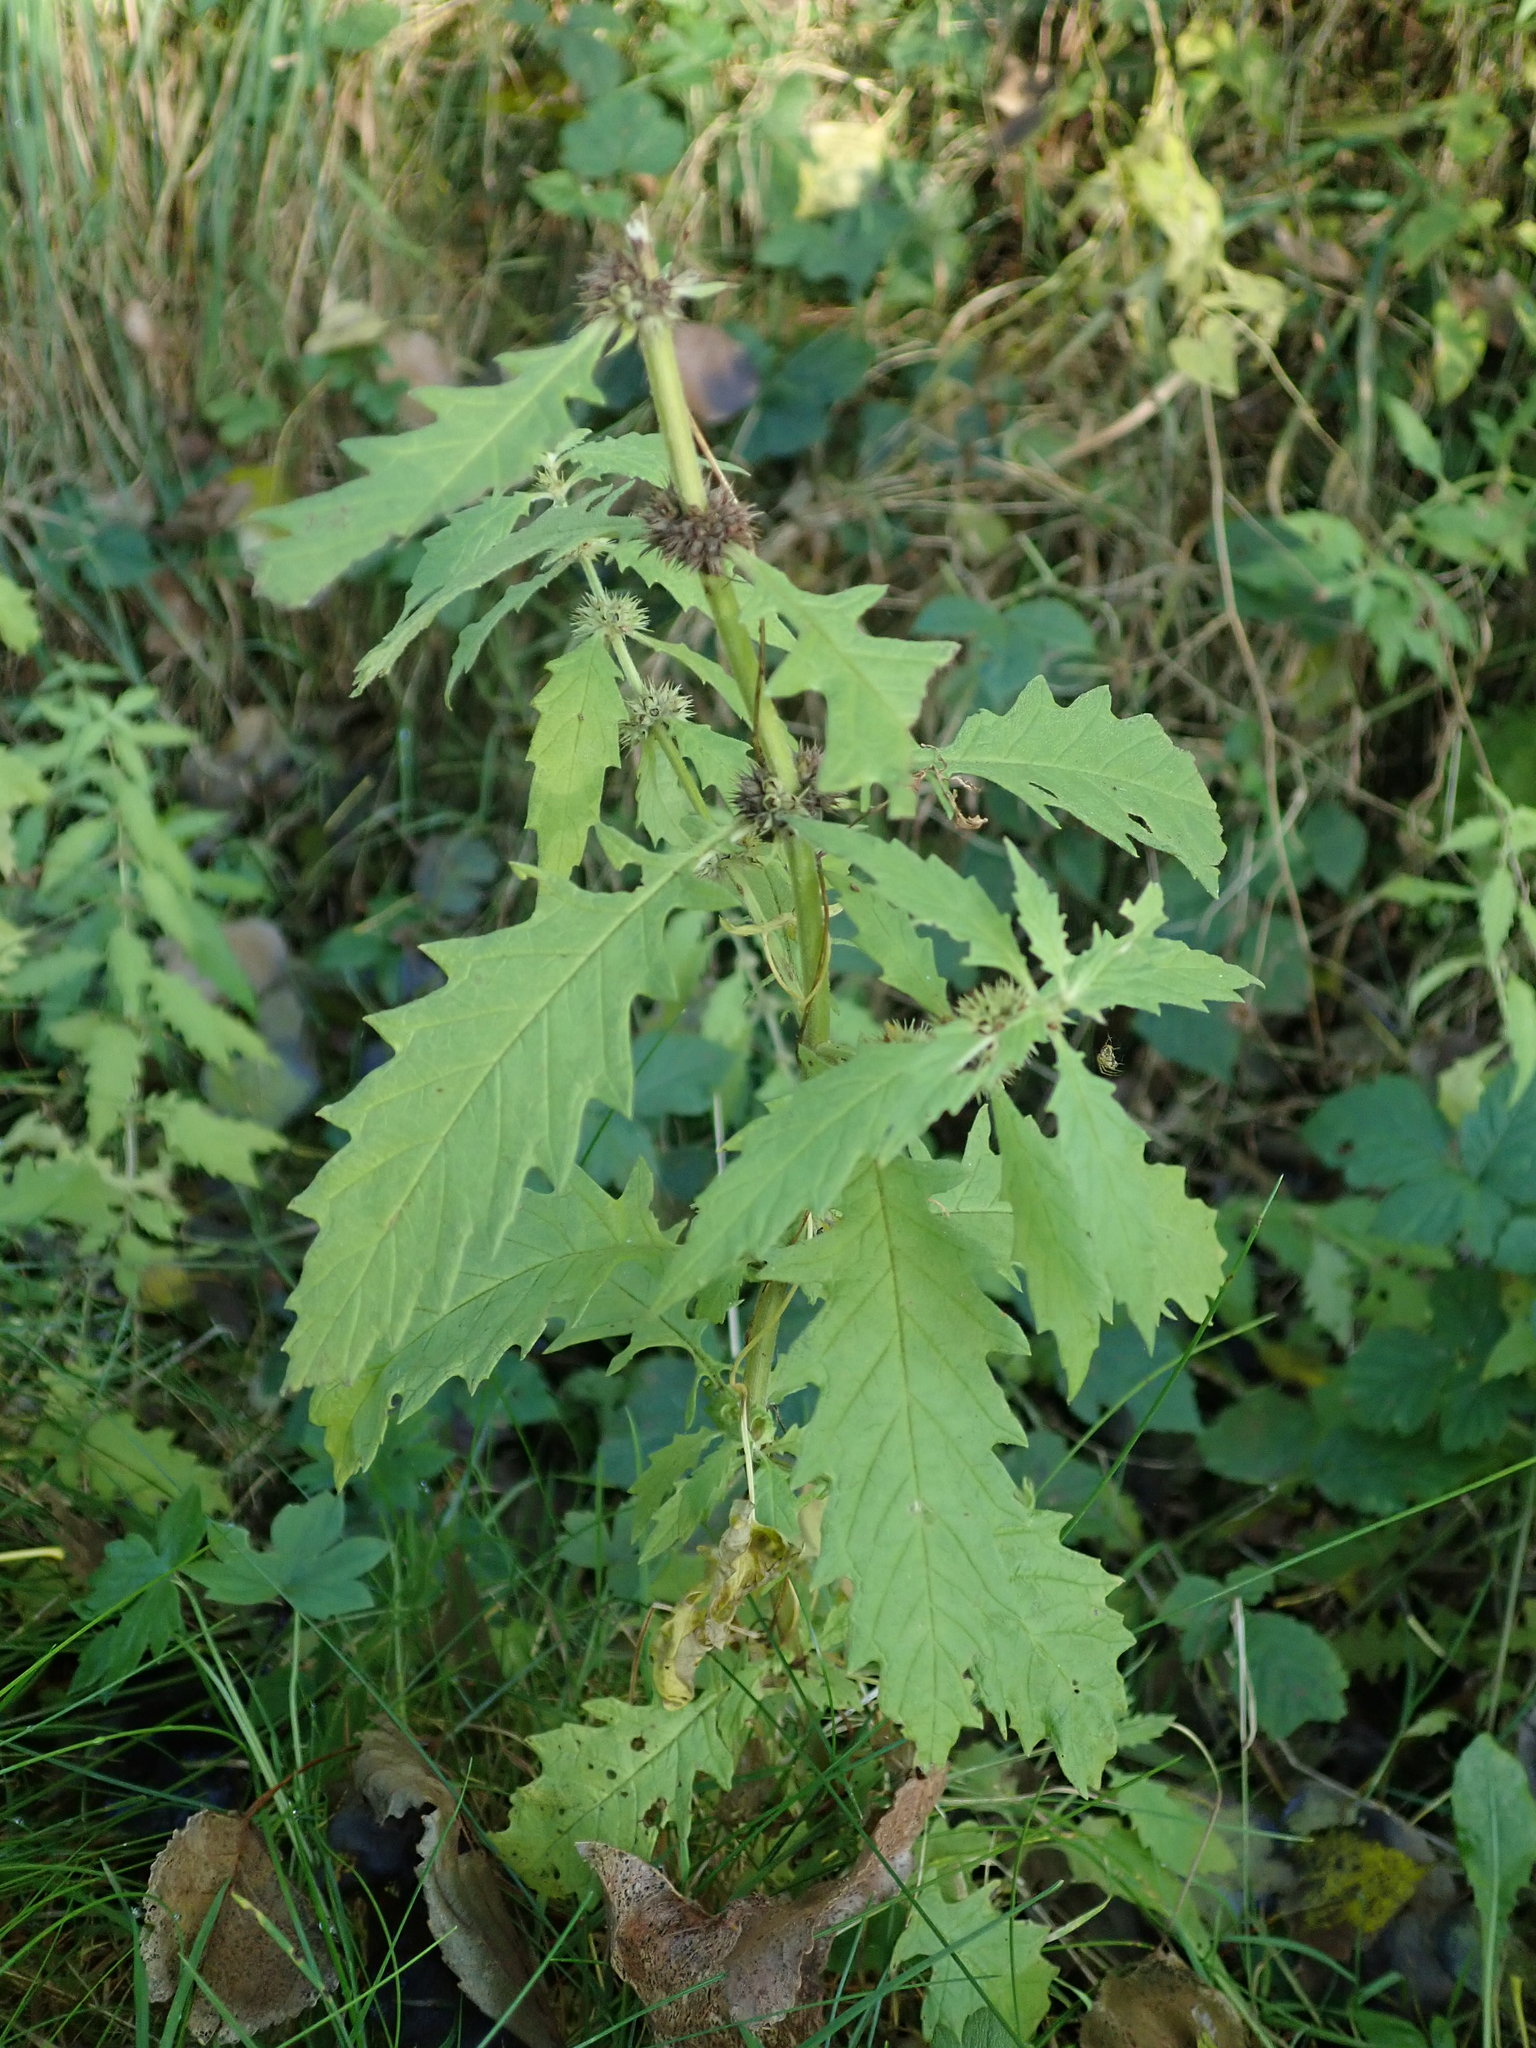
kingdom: Plantae
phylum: Tracheophyta
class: Magnoliopsida
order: Lamiales
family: Lamiaceae
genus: Lycopus
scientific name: Lycopus europaeus
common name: European bugleweed
